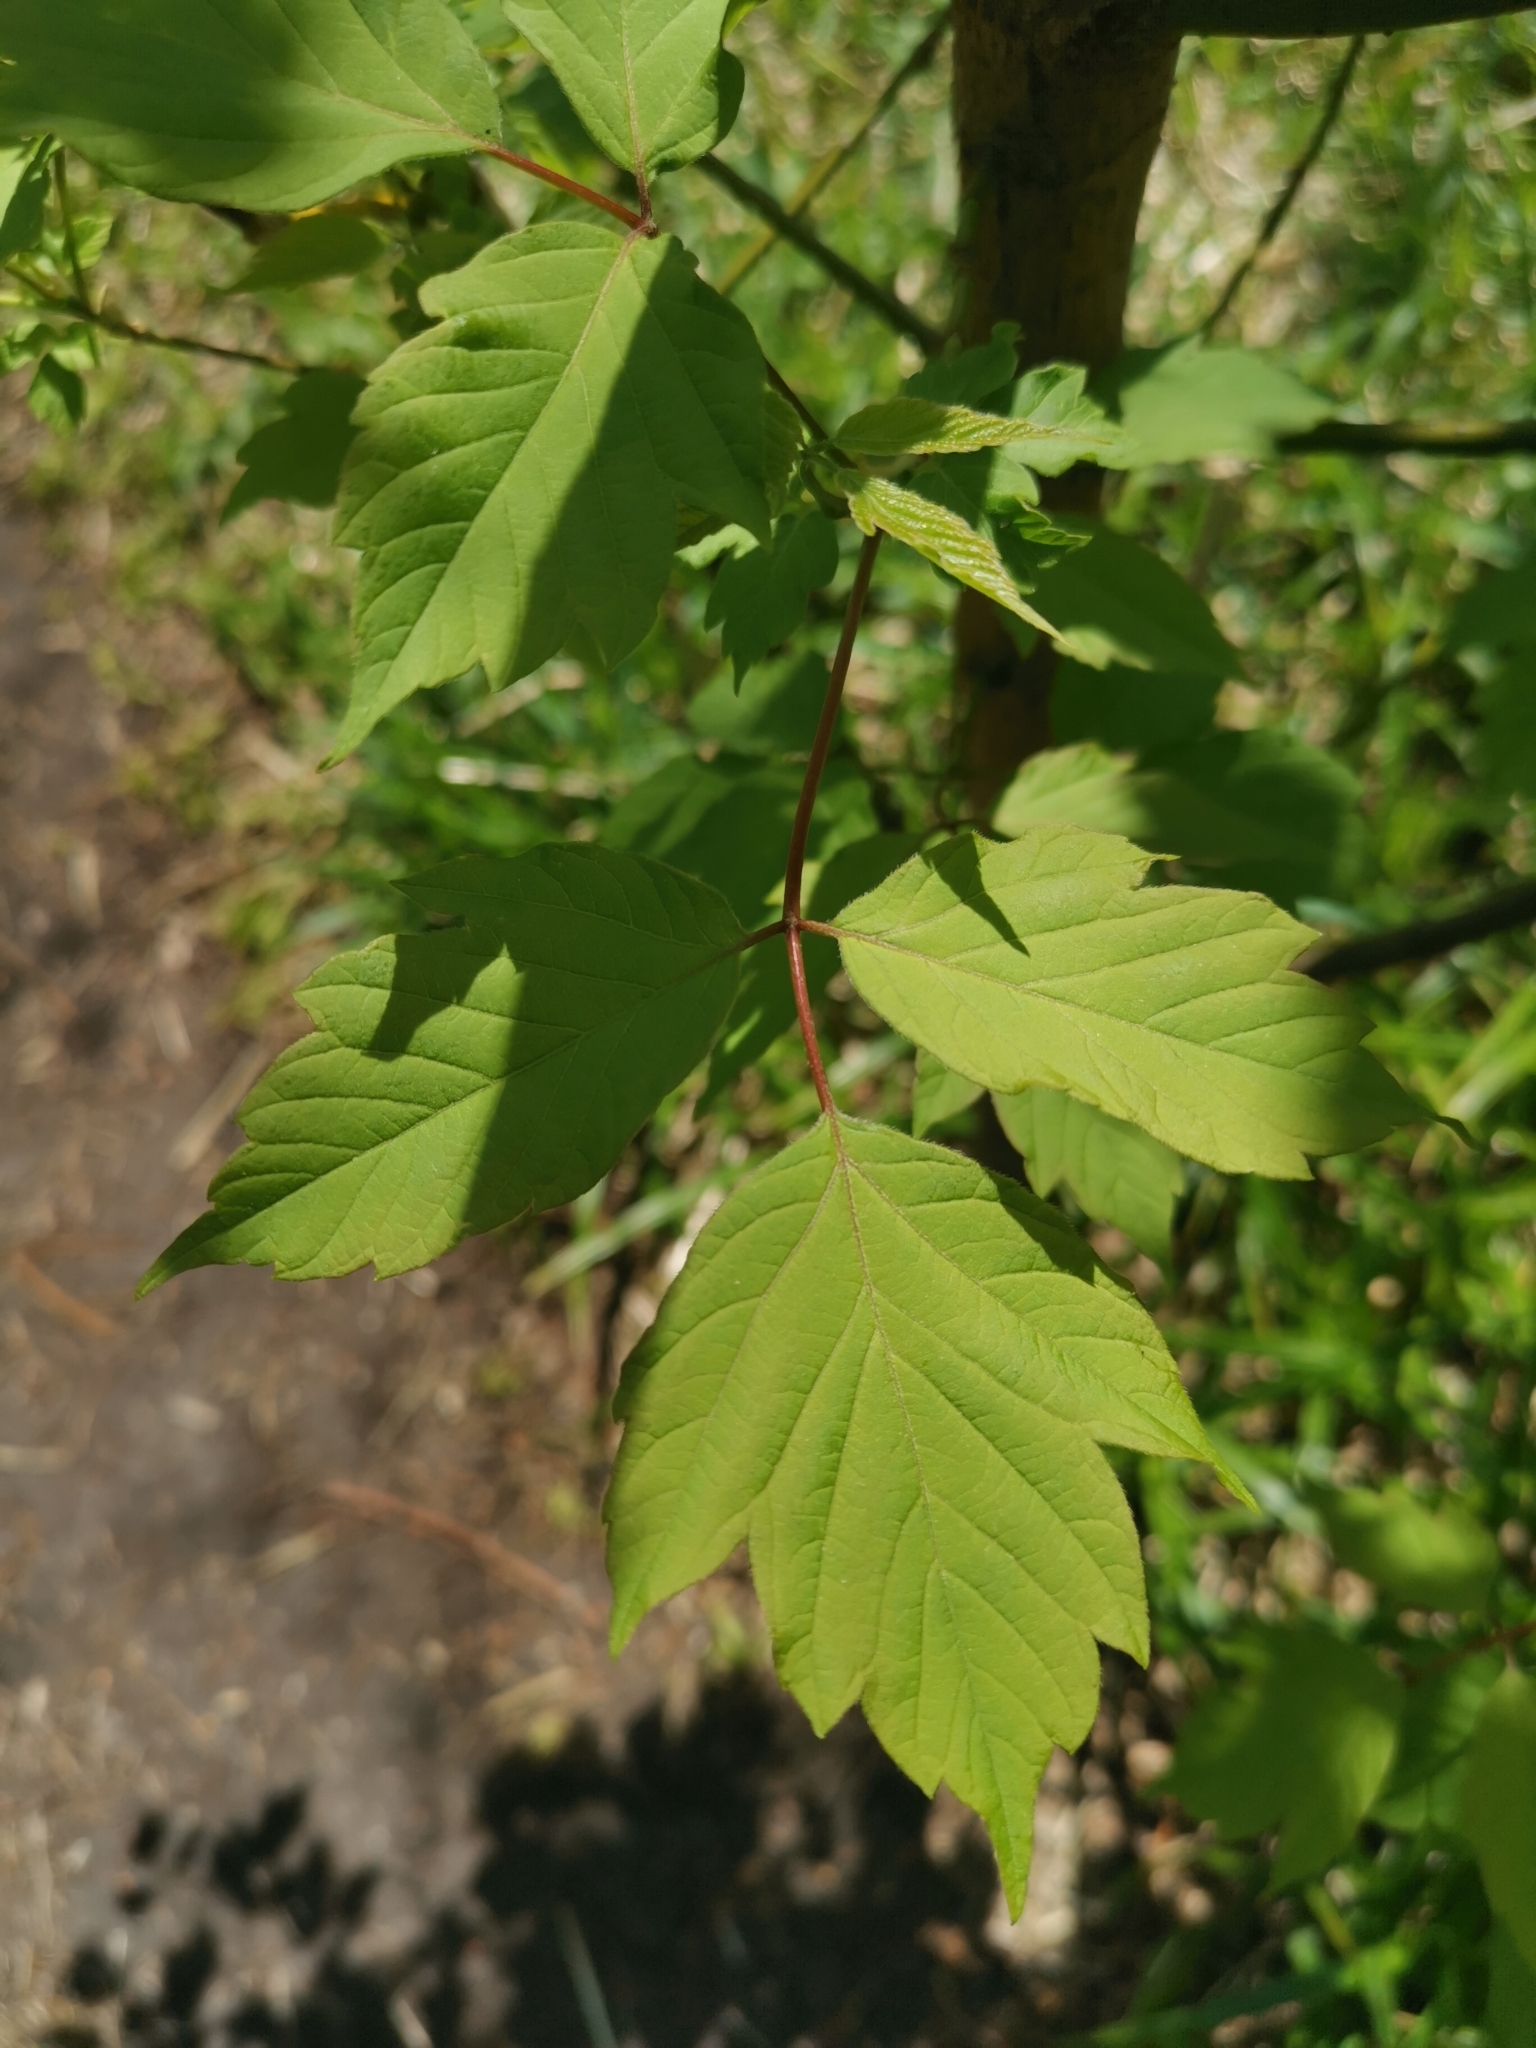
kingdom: Plantae
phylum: Tracheophyta
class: Magnoliopsida
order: Sapindales
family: Sapindaceae
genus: Acer
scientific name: Acer negundo
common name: Ashleaf maple
